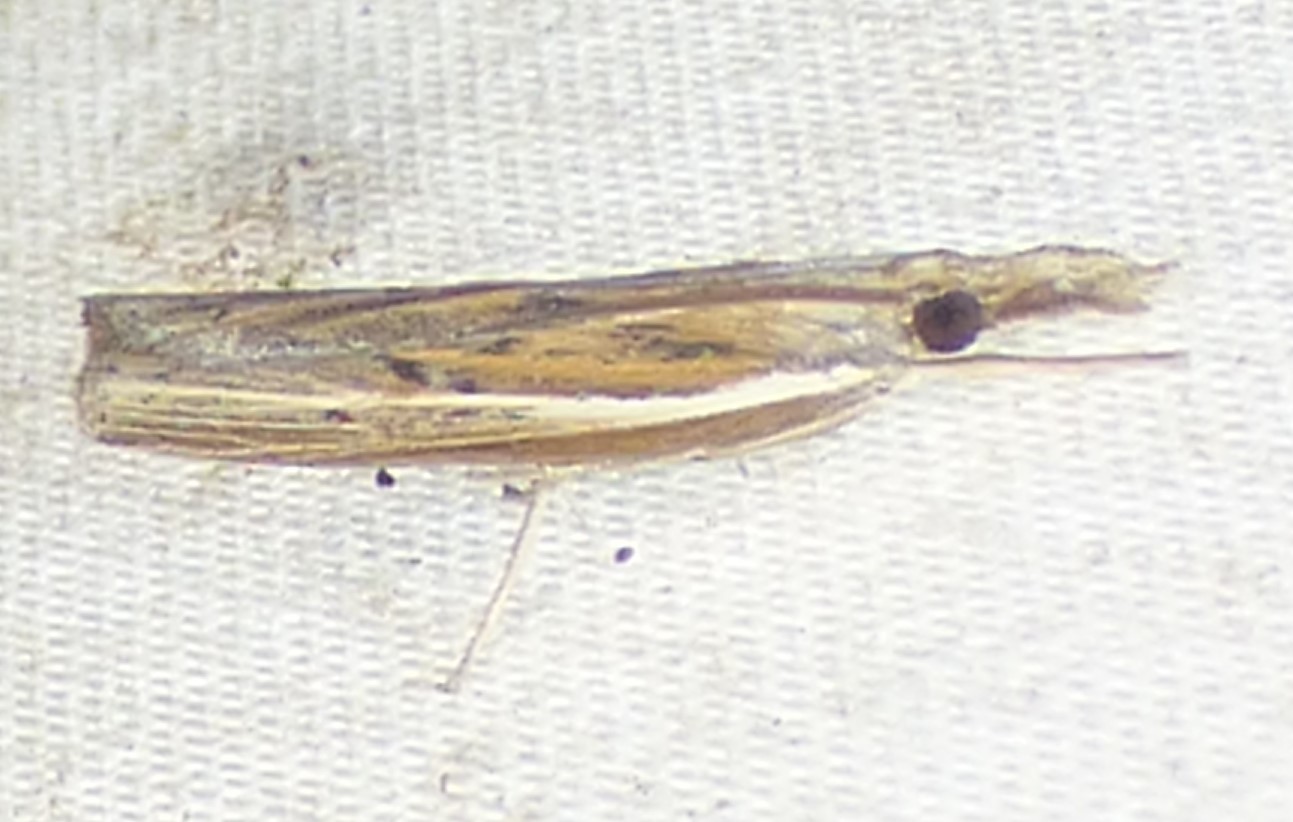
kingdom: Animalia
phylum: Arthropoda
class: Insecta
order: Lepidoptera
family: Crambidae
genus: Fissicrambus
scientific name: Fissicrambus fissiradiellus
